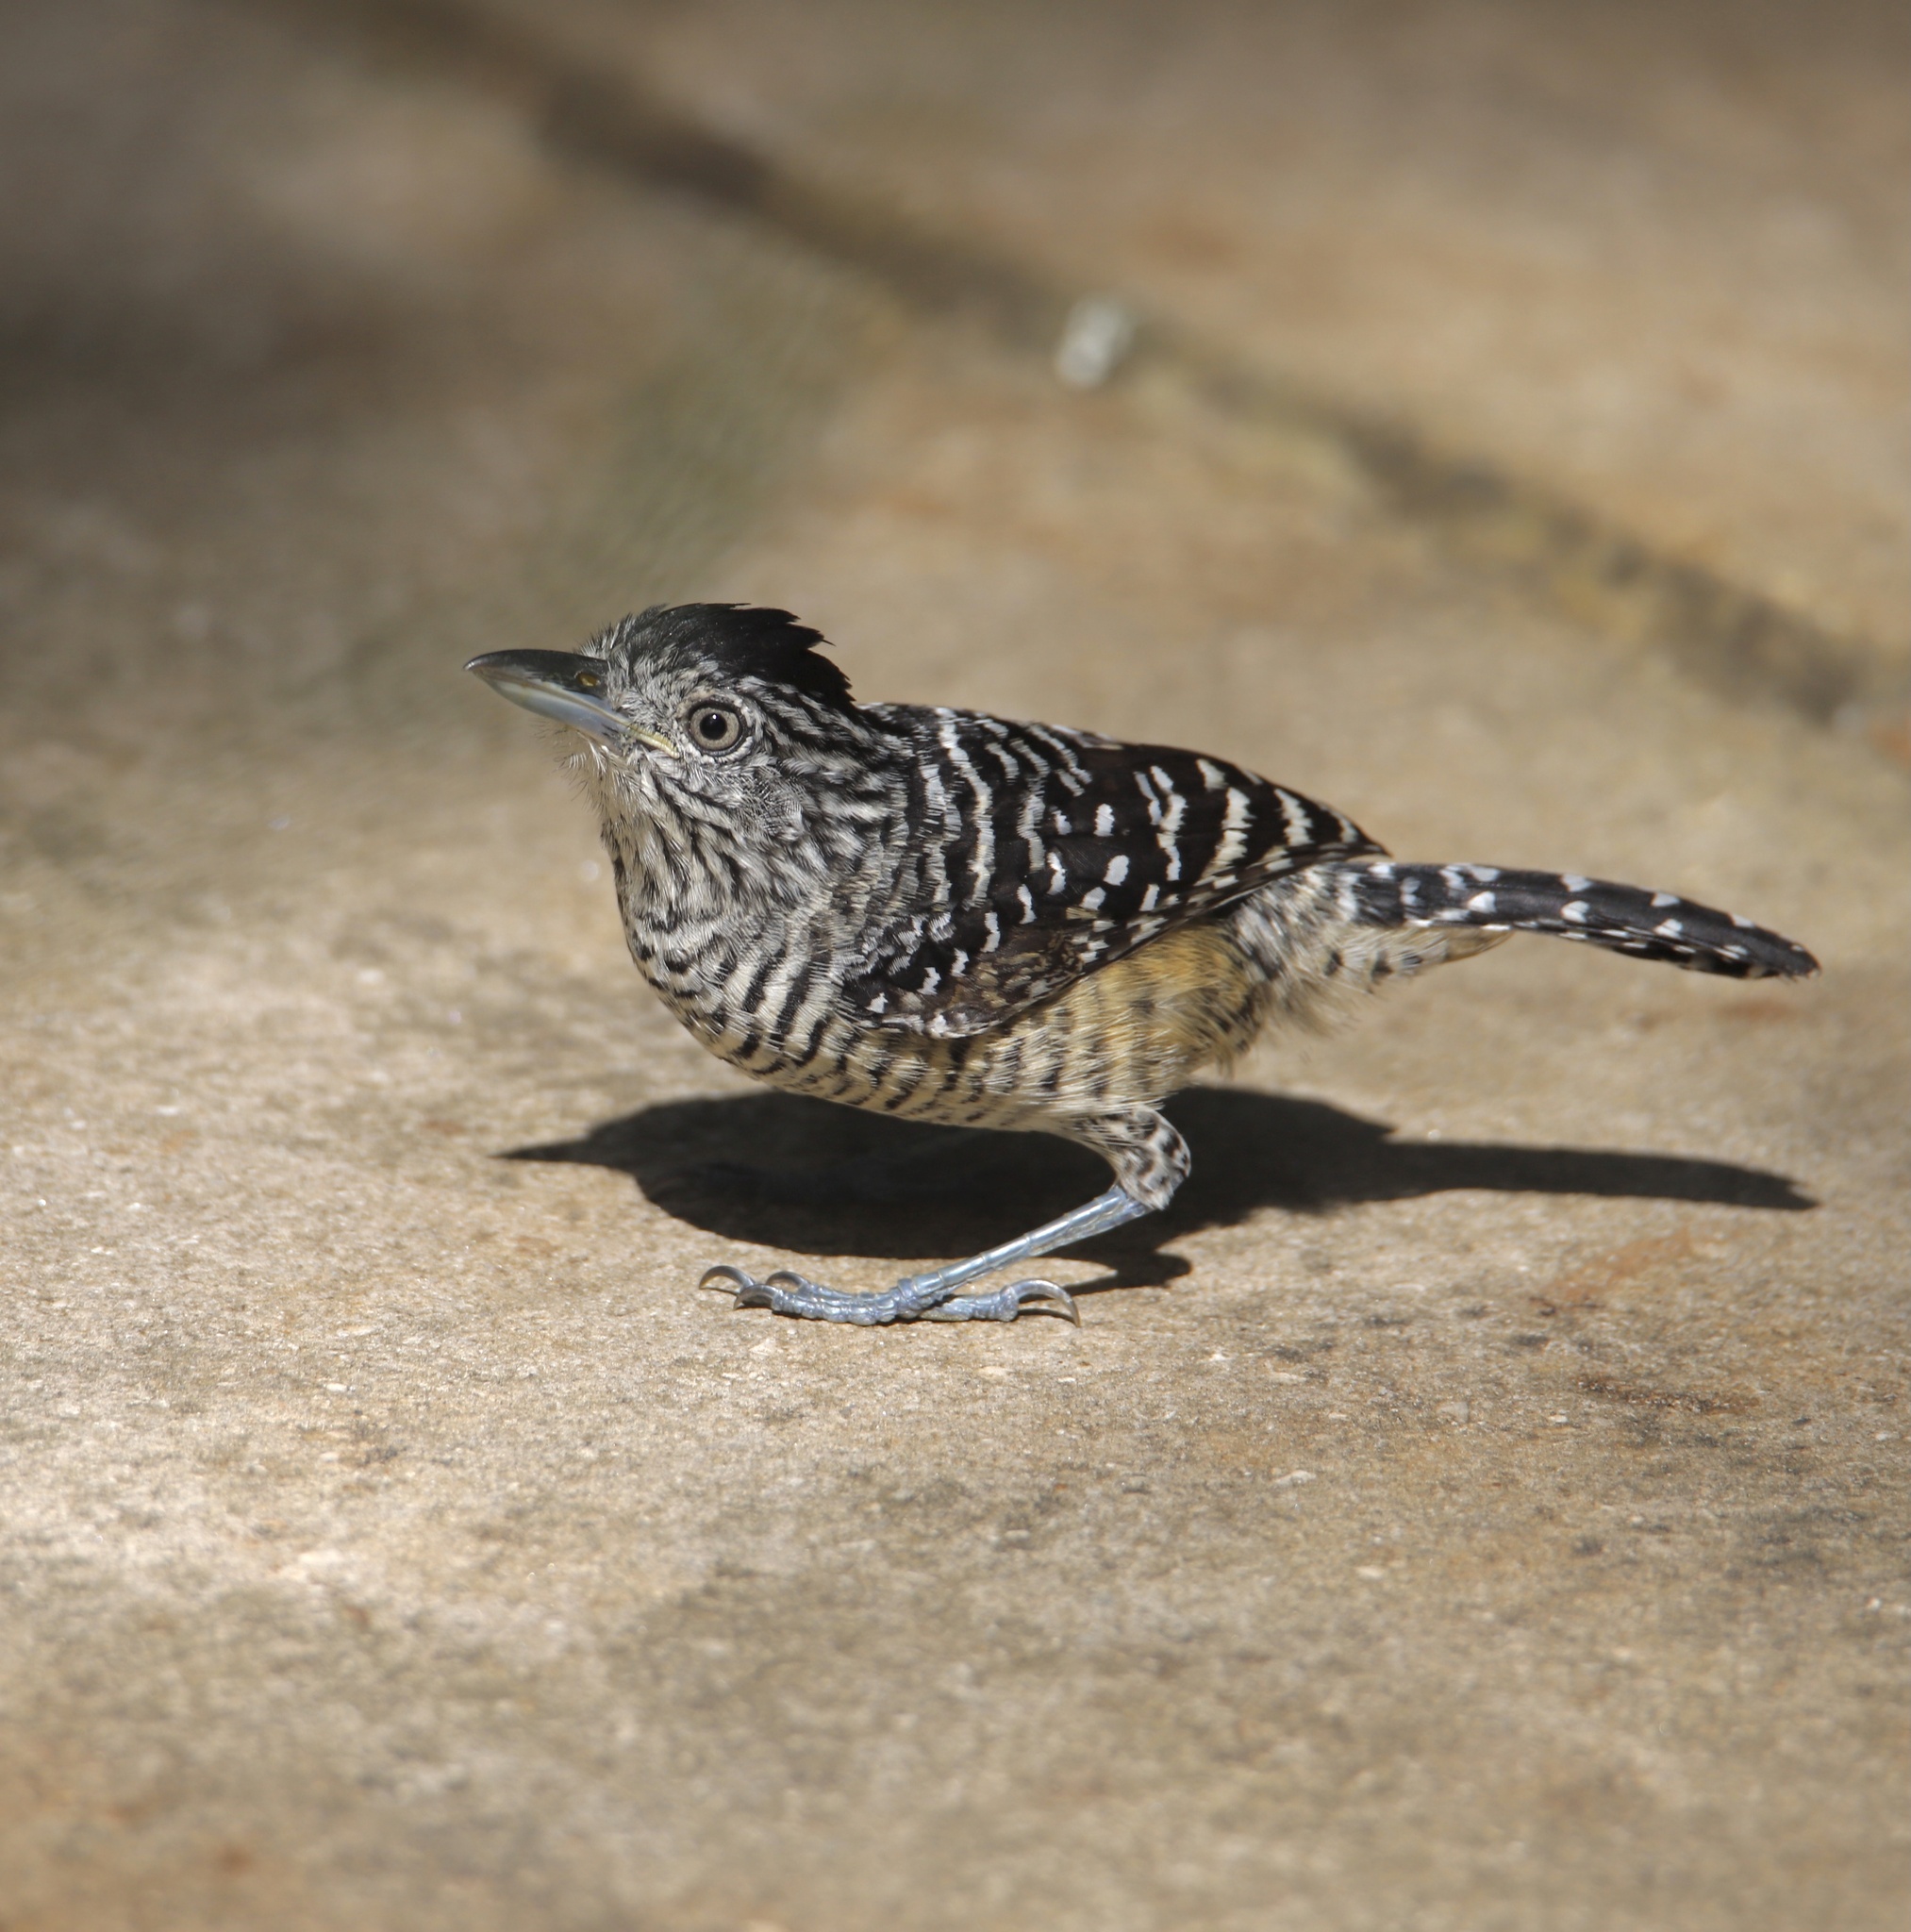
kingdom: Animalia
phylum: Chordata
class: Aves
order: Passeriformes
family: Thamnophilidae
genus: Thamnophilus
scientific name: Thamnophilus doliatus
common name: Barred antshrike
